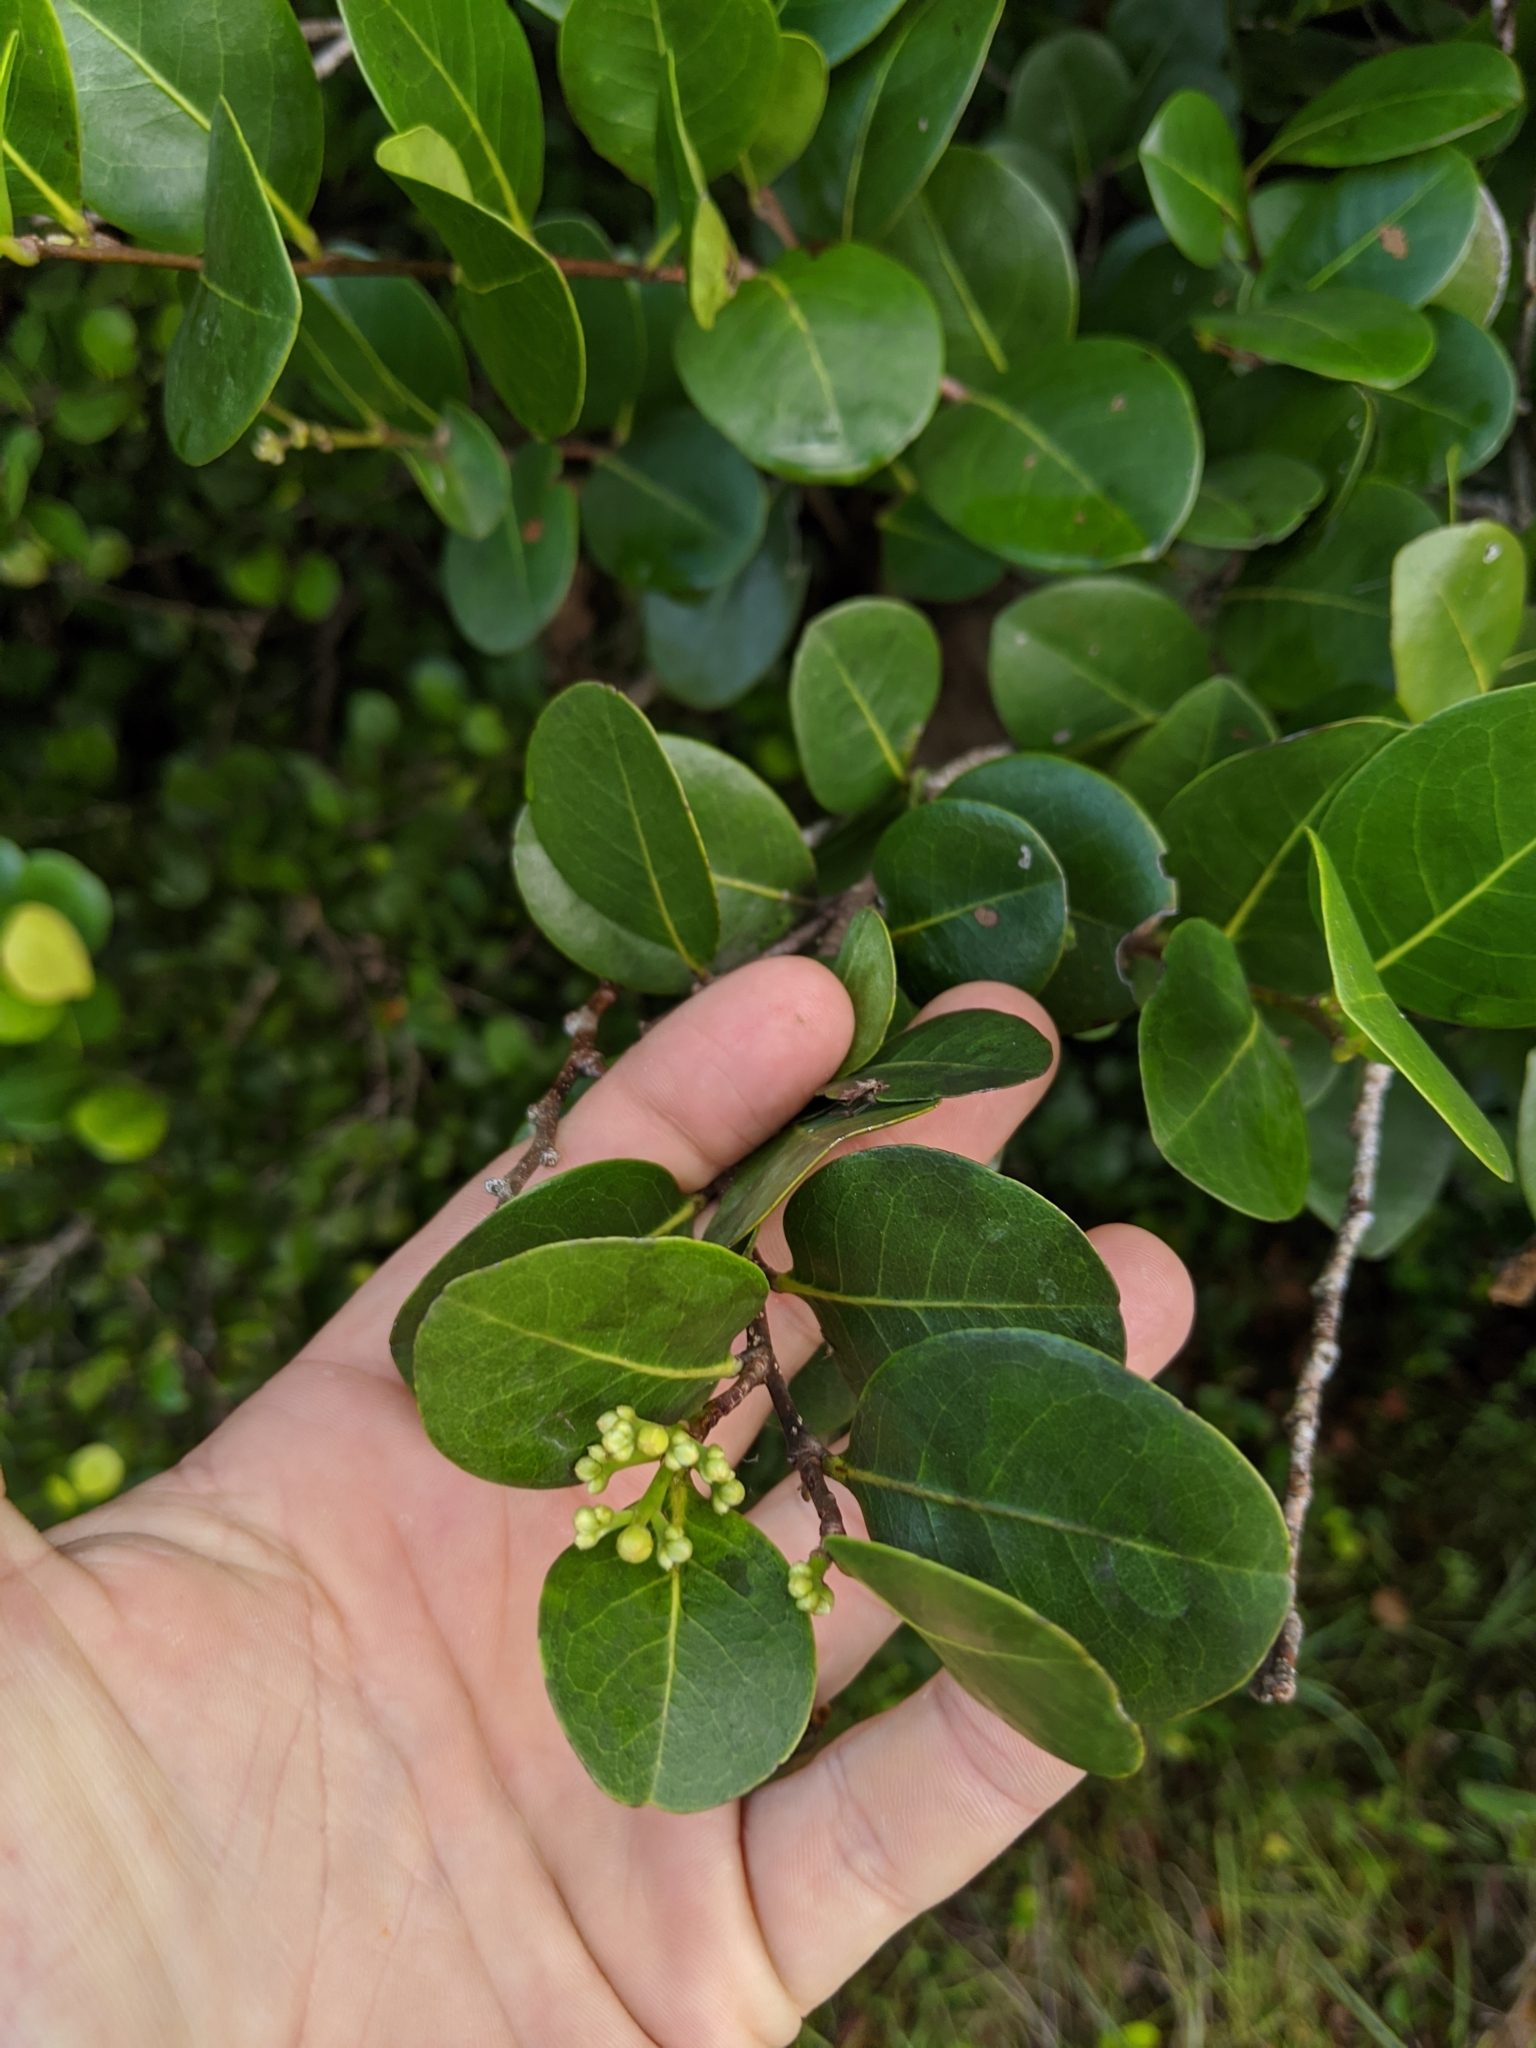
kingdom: Plantae
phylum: Tracheophyta
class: Magnoliopsida
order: Malpighiales
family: Chrysobalanaceae
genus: Chrysobalanus
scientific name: Chrysobalanus icaco
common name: Coco plum
